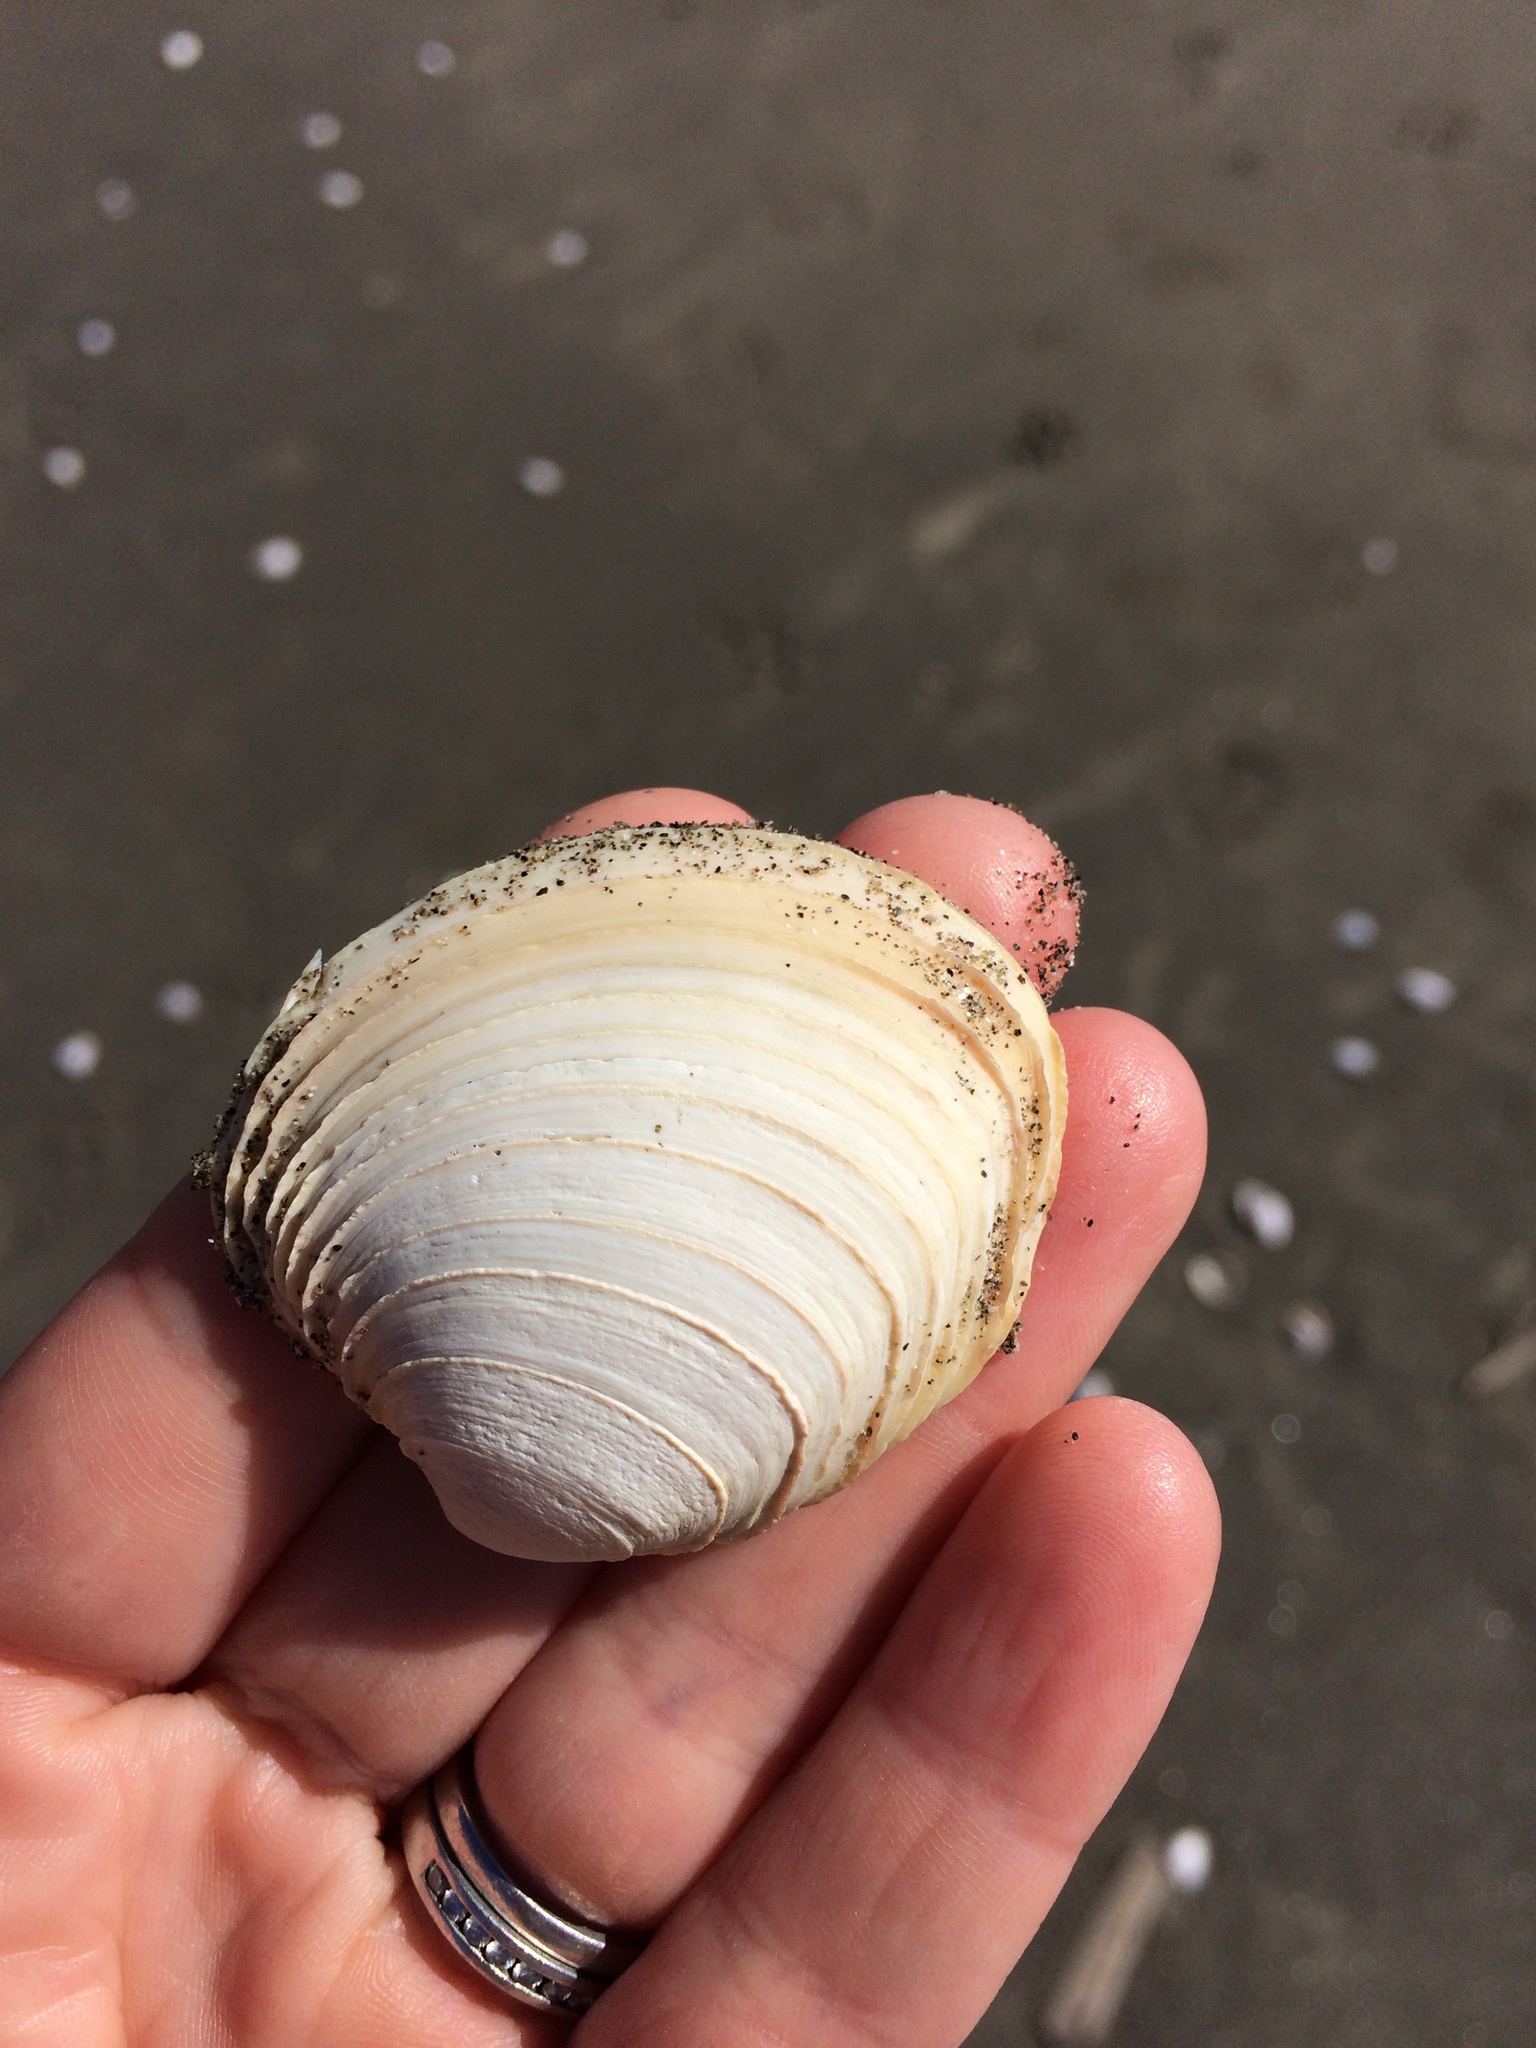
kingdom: Animalia
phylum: Mollusca
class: Bivalvia
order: Venerida
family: Veneridae
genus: Bassina
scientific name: Bassina yatei
